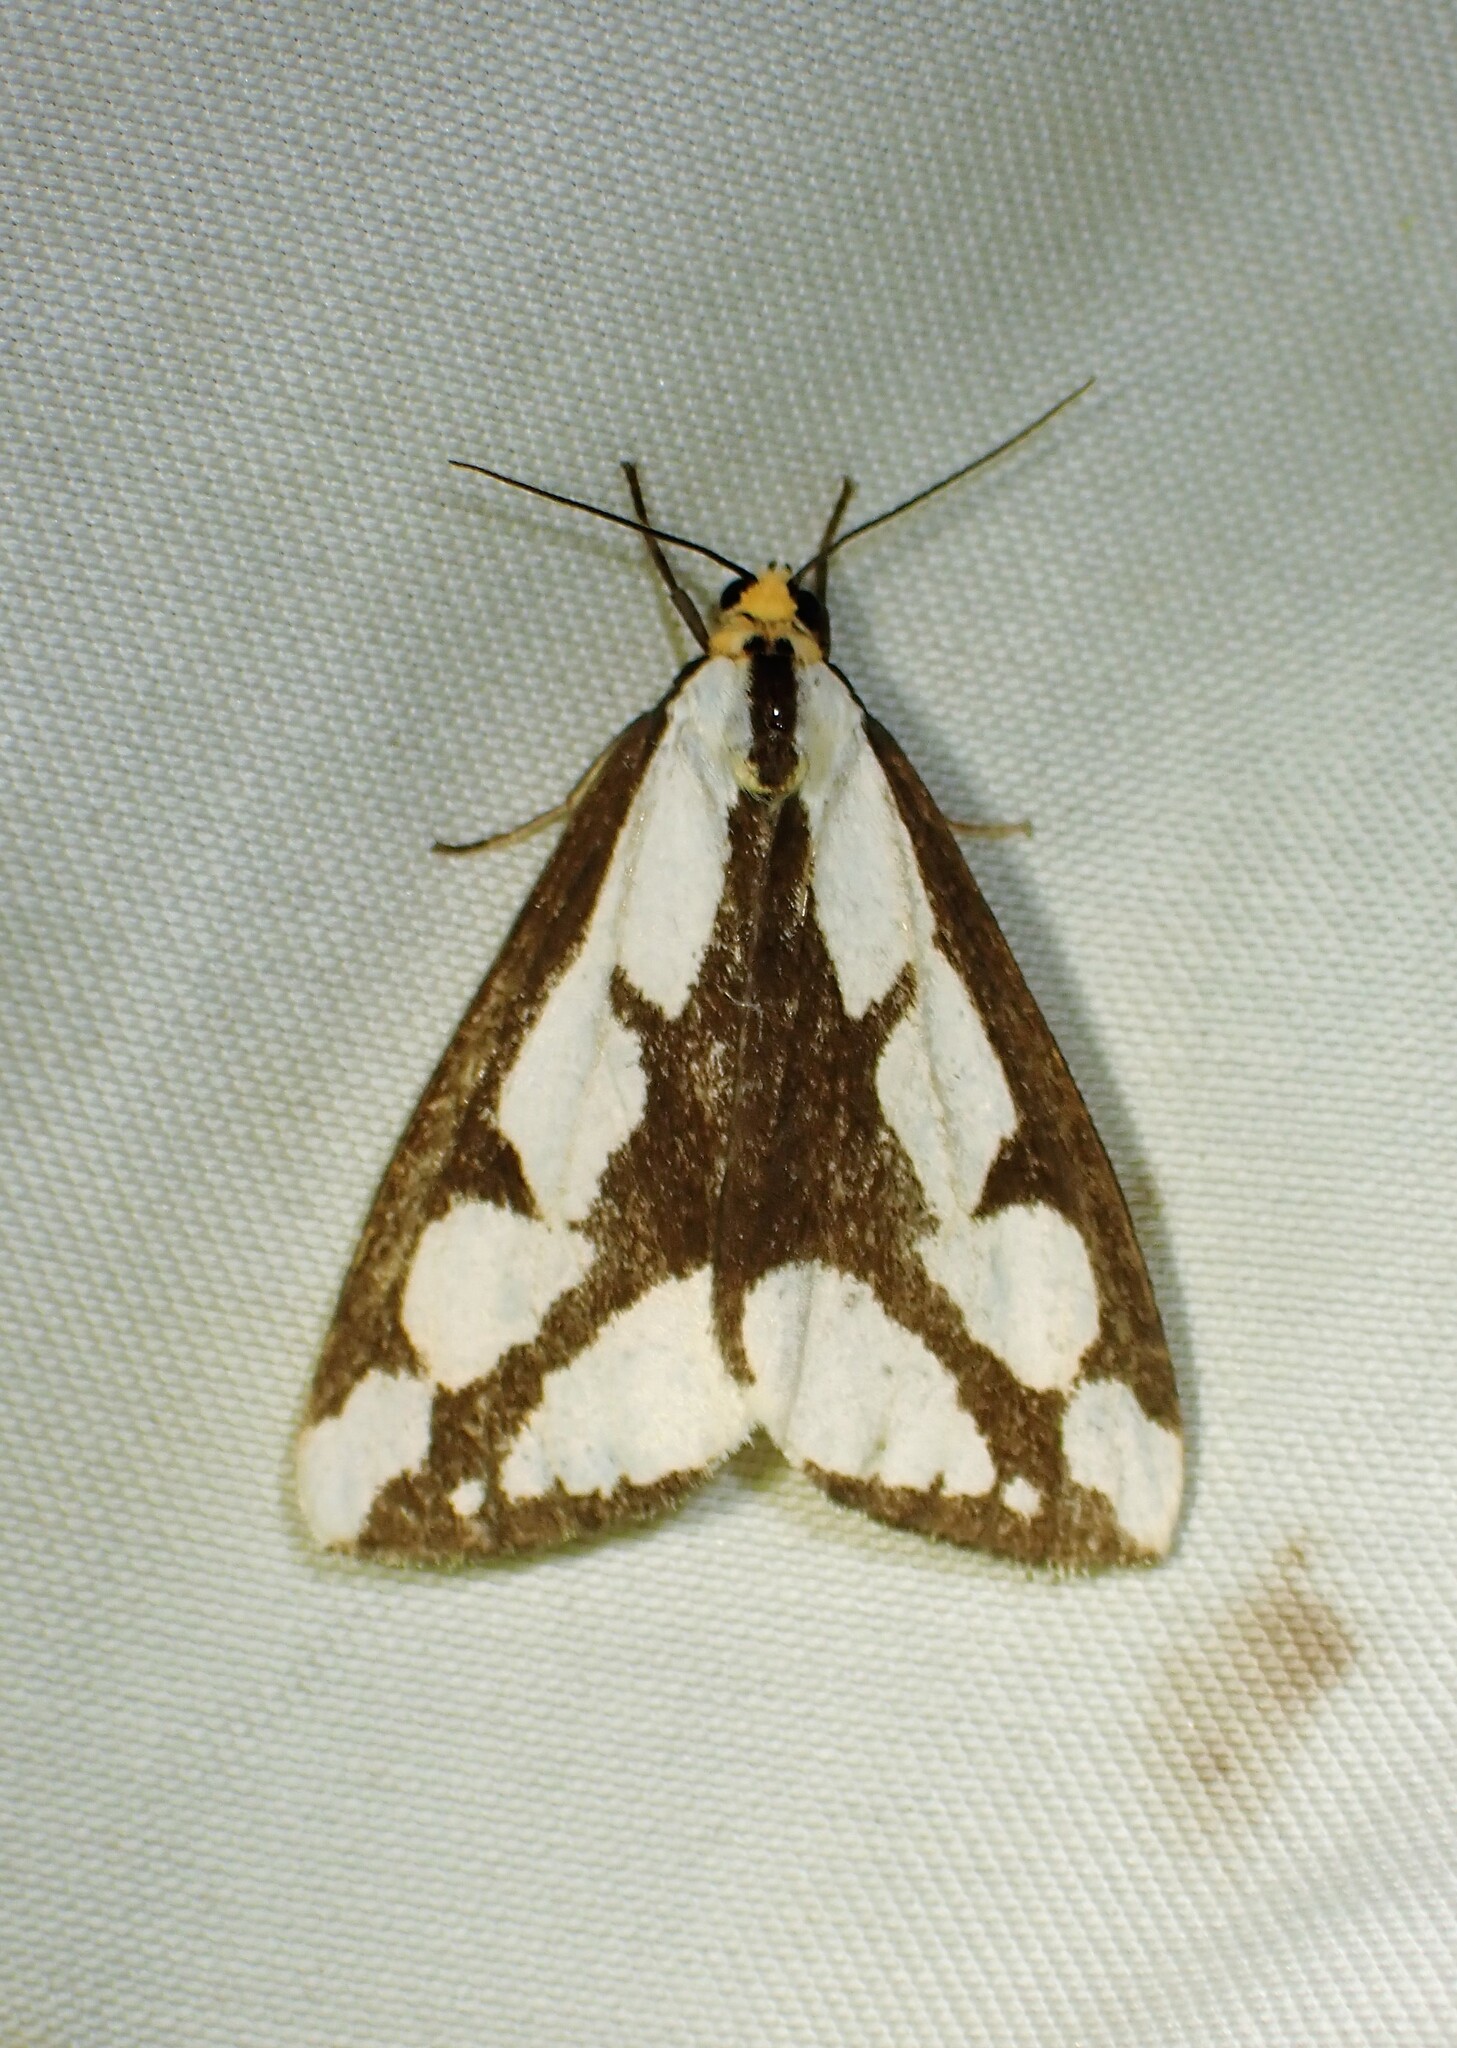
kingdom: Animalia
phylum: Arthropoda
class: Insecta
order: Lepidoptera
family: Erebidae
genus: Haploa
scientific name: Haploa lecontei
